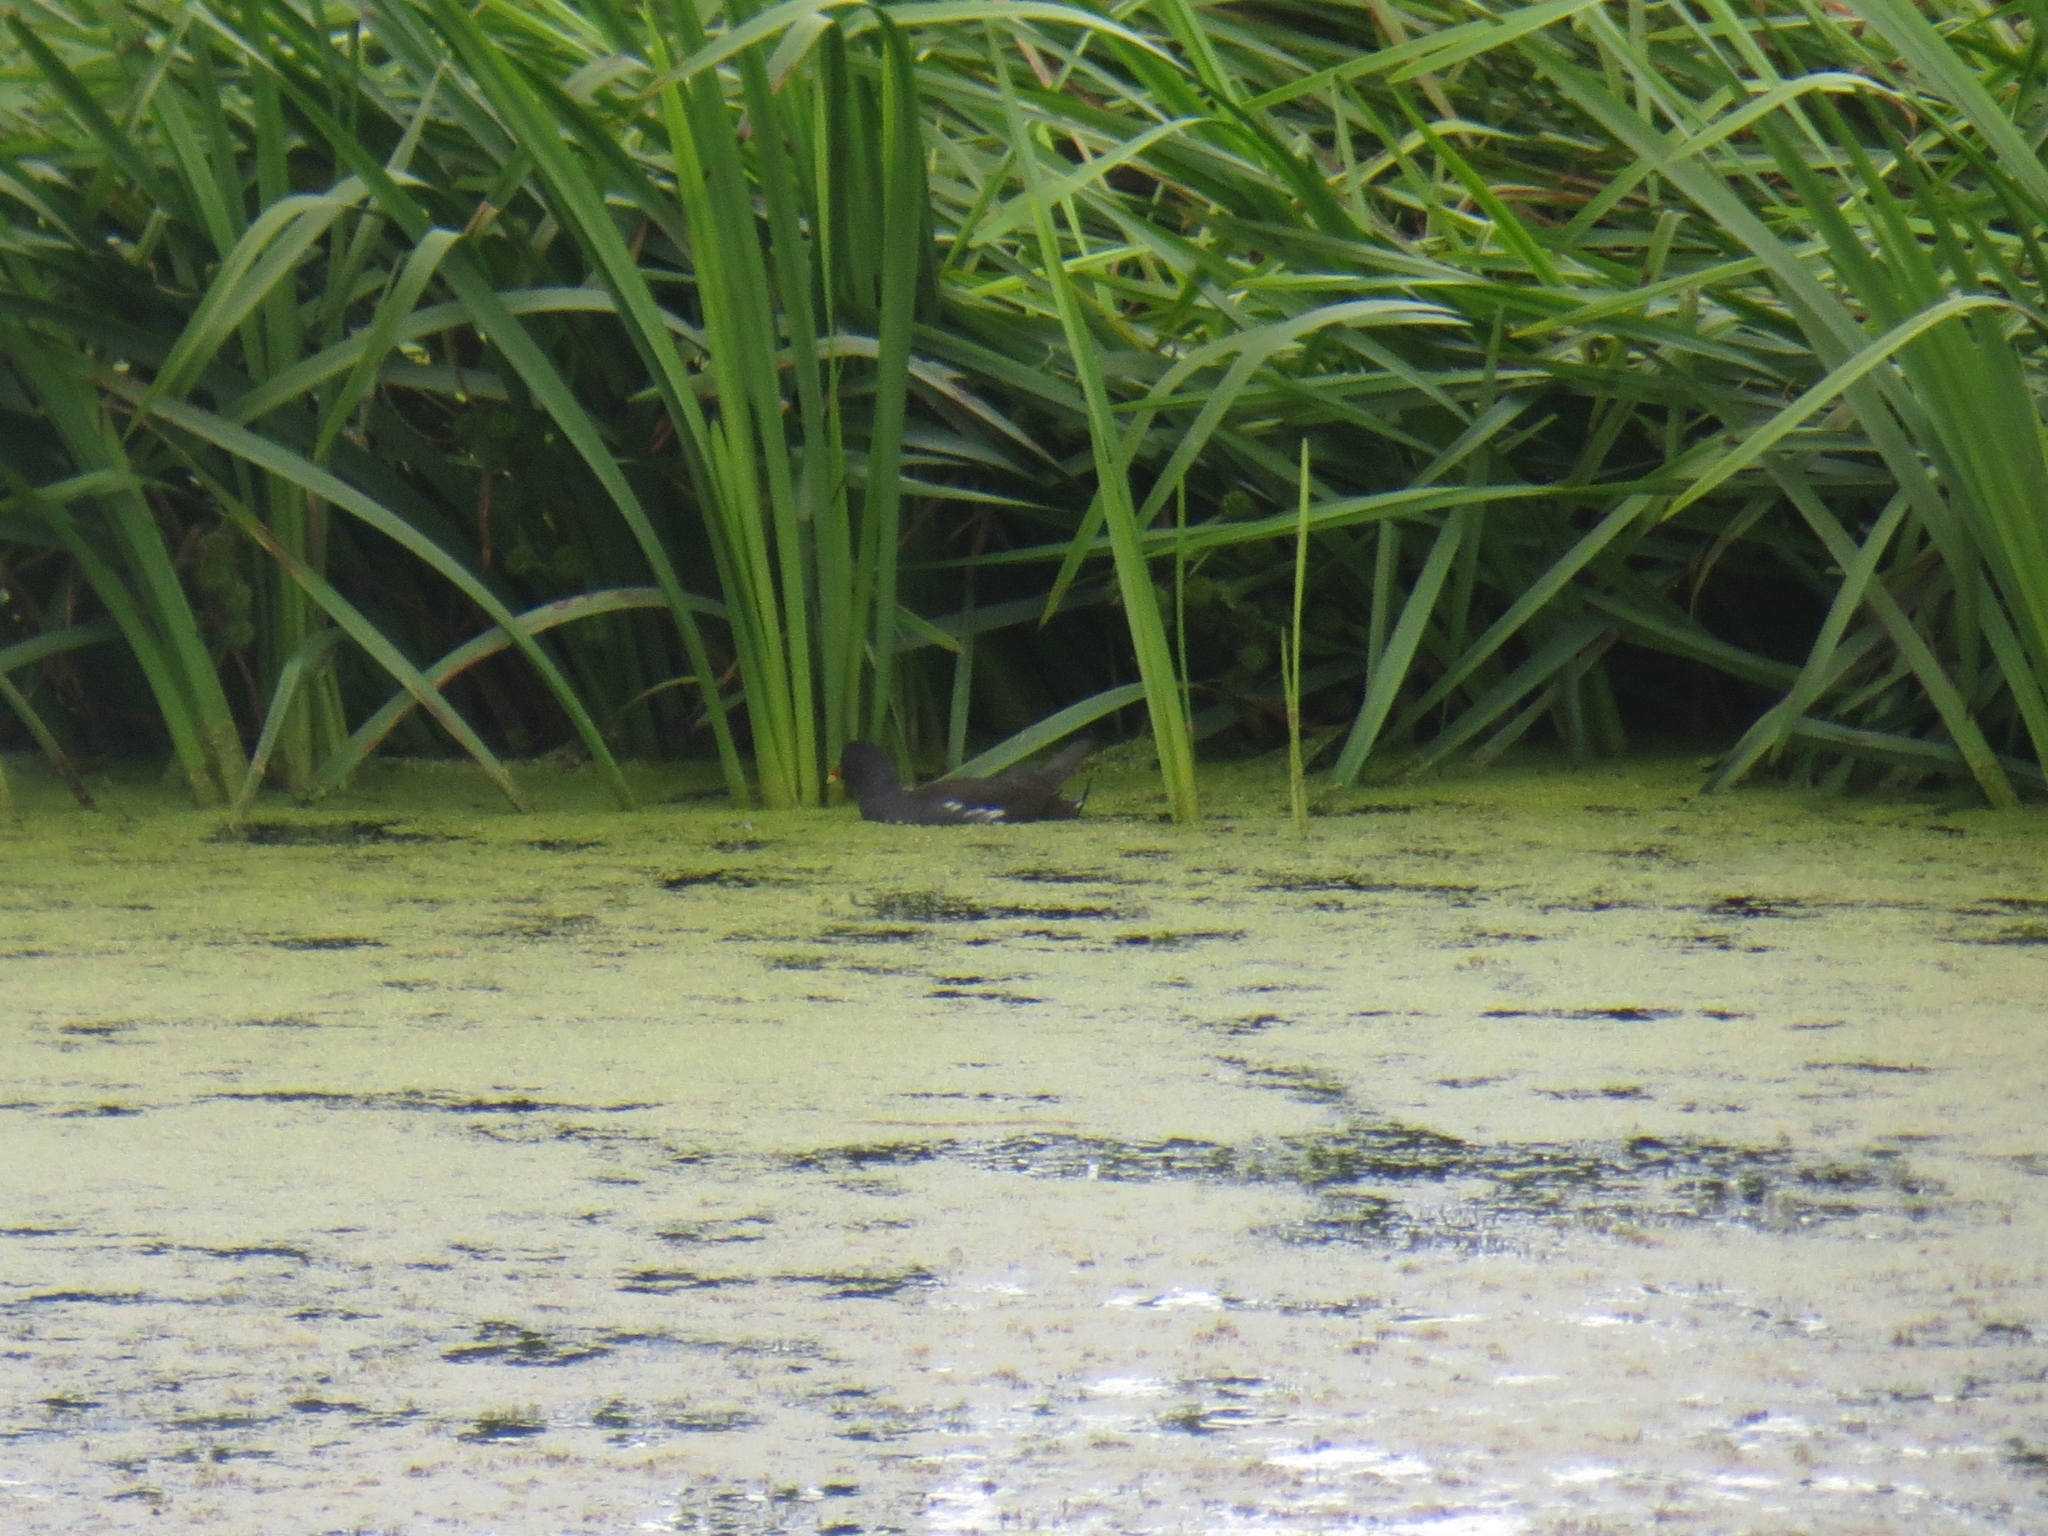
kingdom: Animalia
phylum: Chordata
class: Aves
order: Gruiformes
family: Rallidae
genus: Gallinula
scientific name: Gallinula chloropus
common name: Common moorhen
